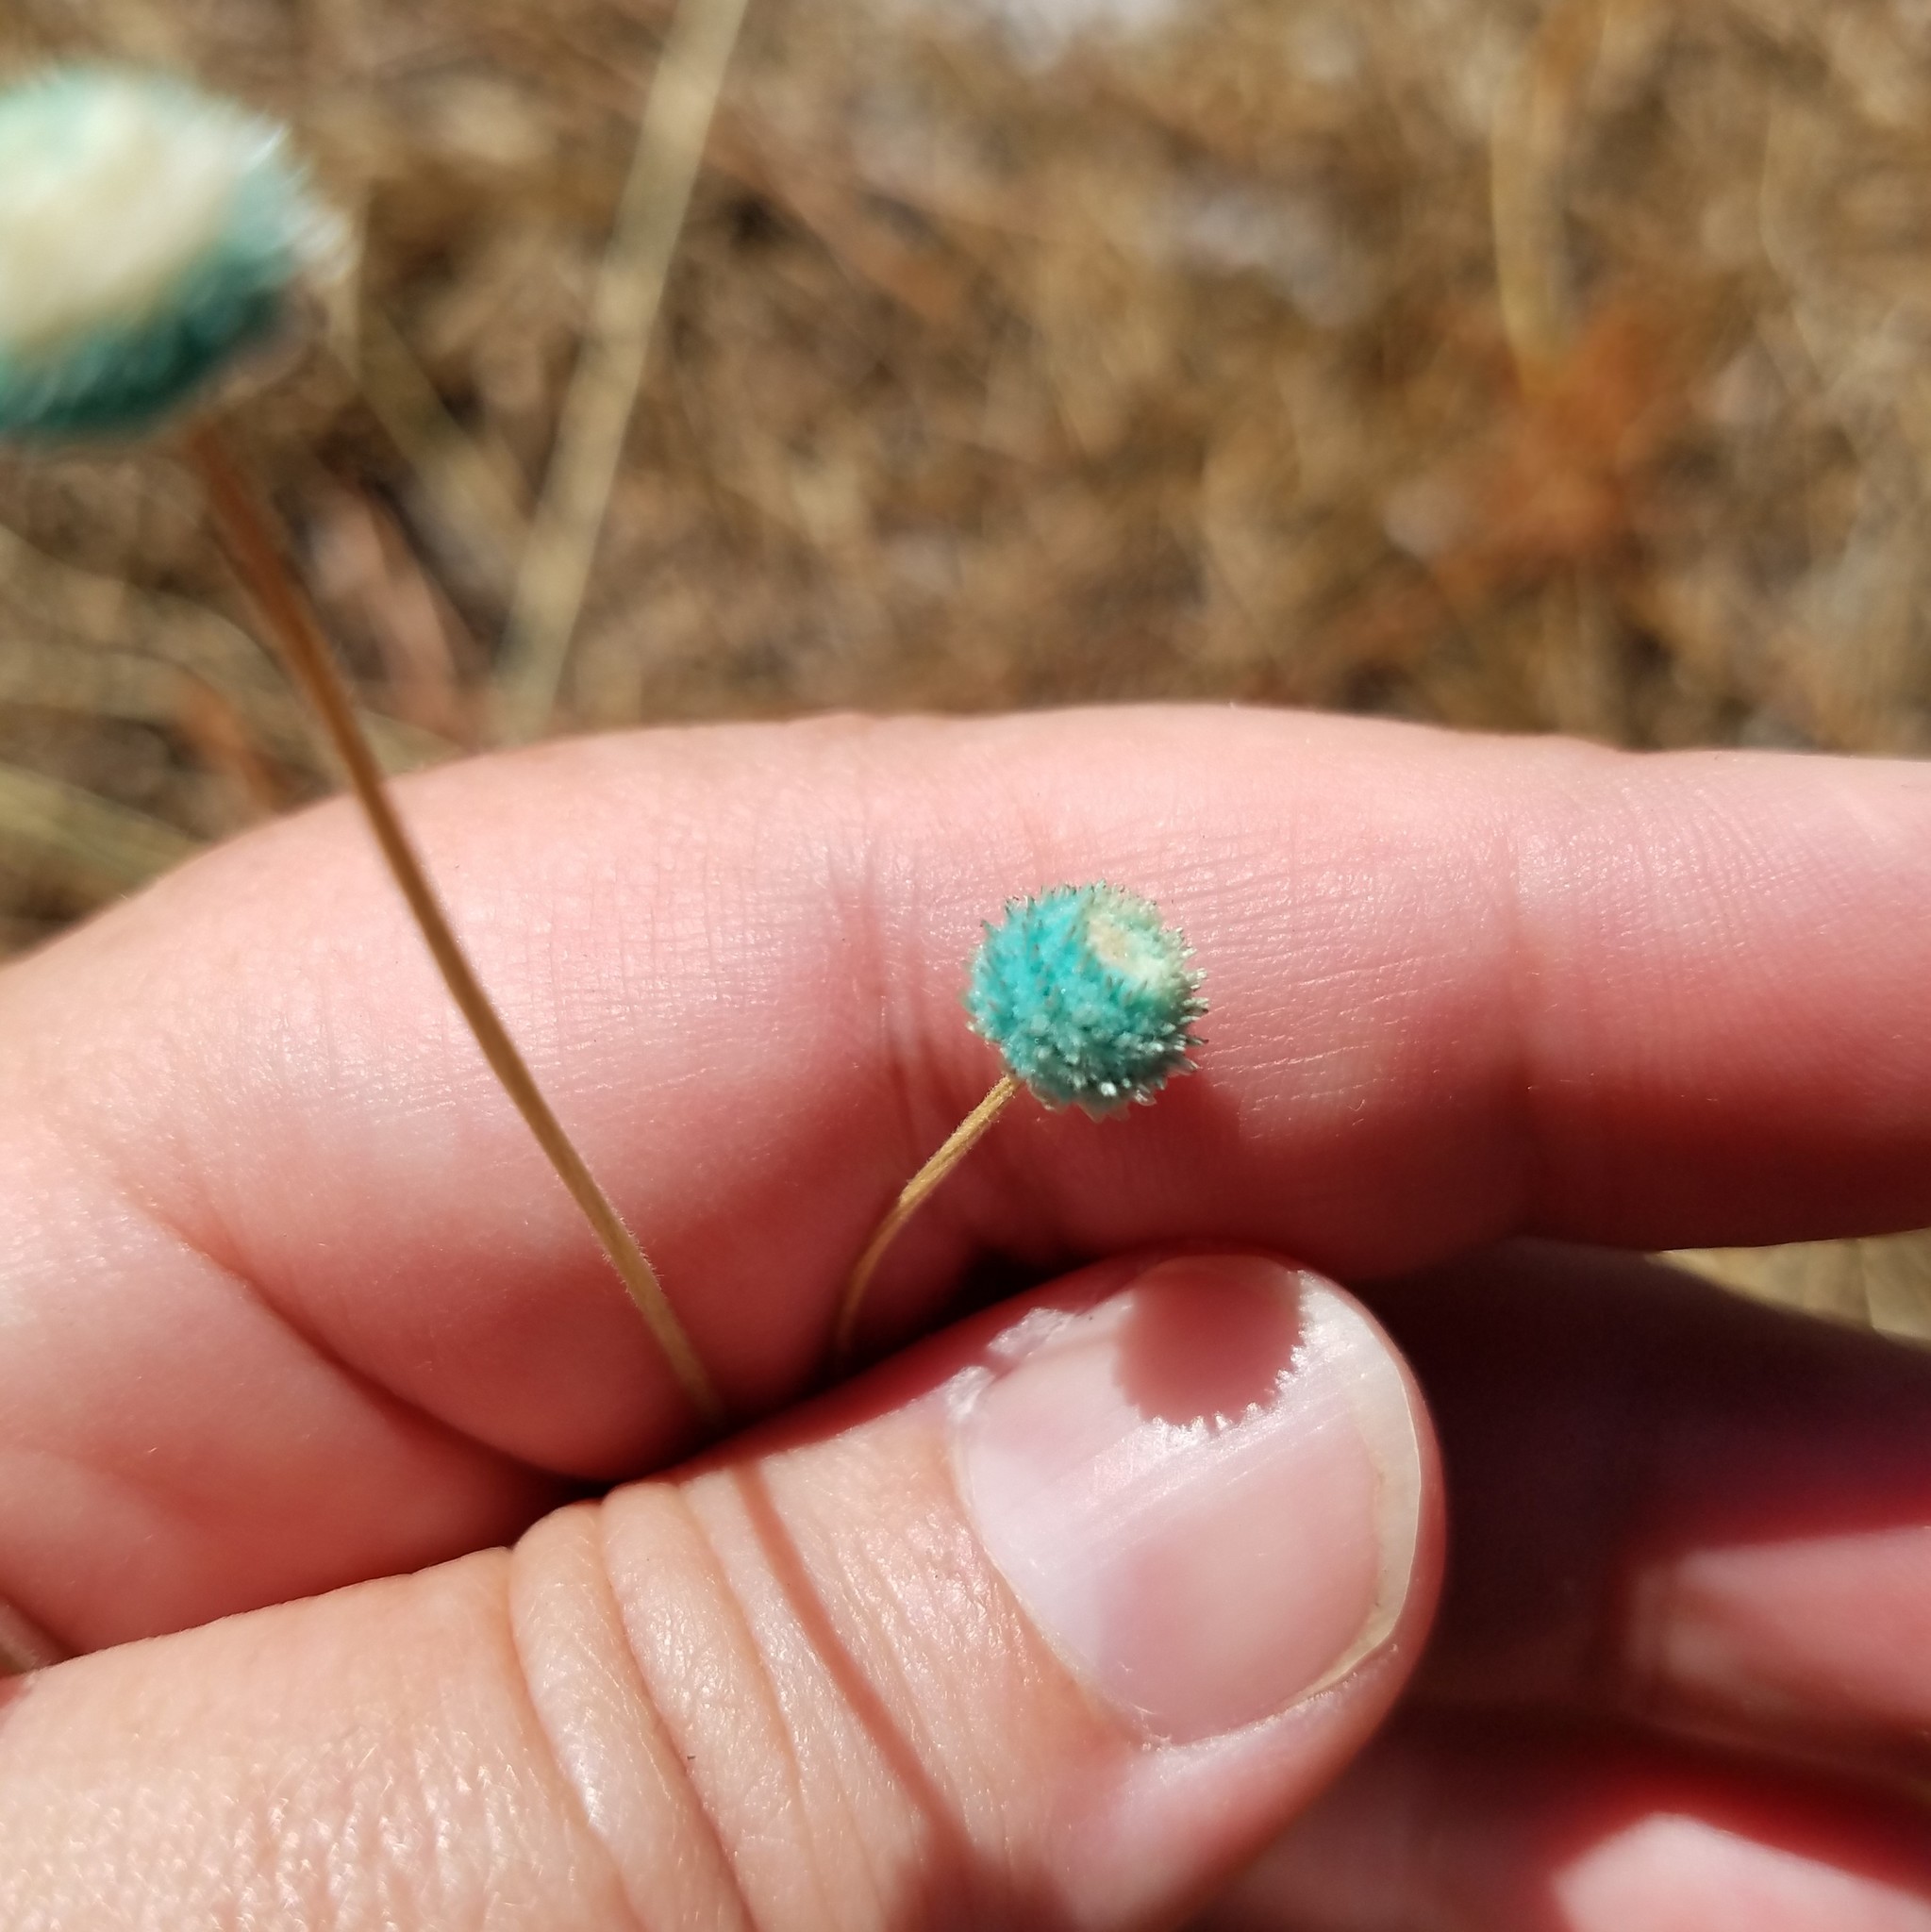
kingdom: Plantae
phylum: Tracheophyta
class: Liliopsida
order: Poales
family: Eriocaulaceae
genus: Syngonanthus
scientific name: Syngonanthus flavidulus
